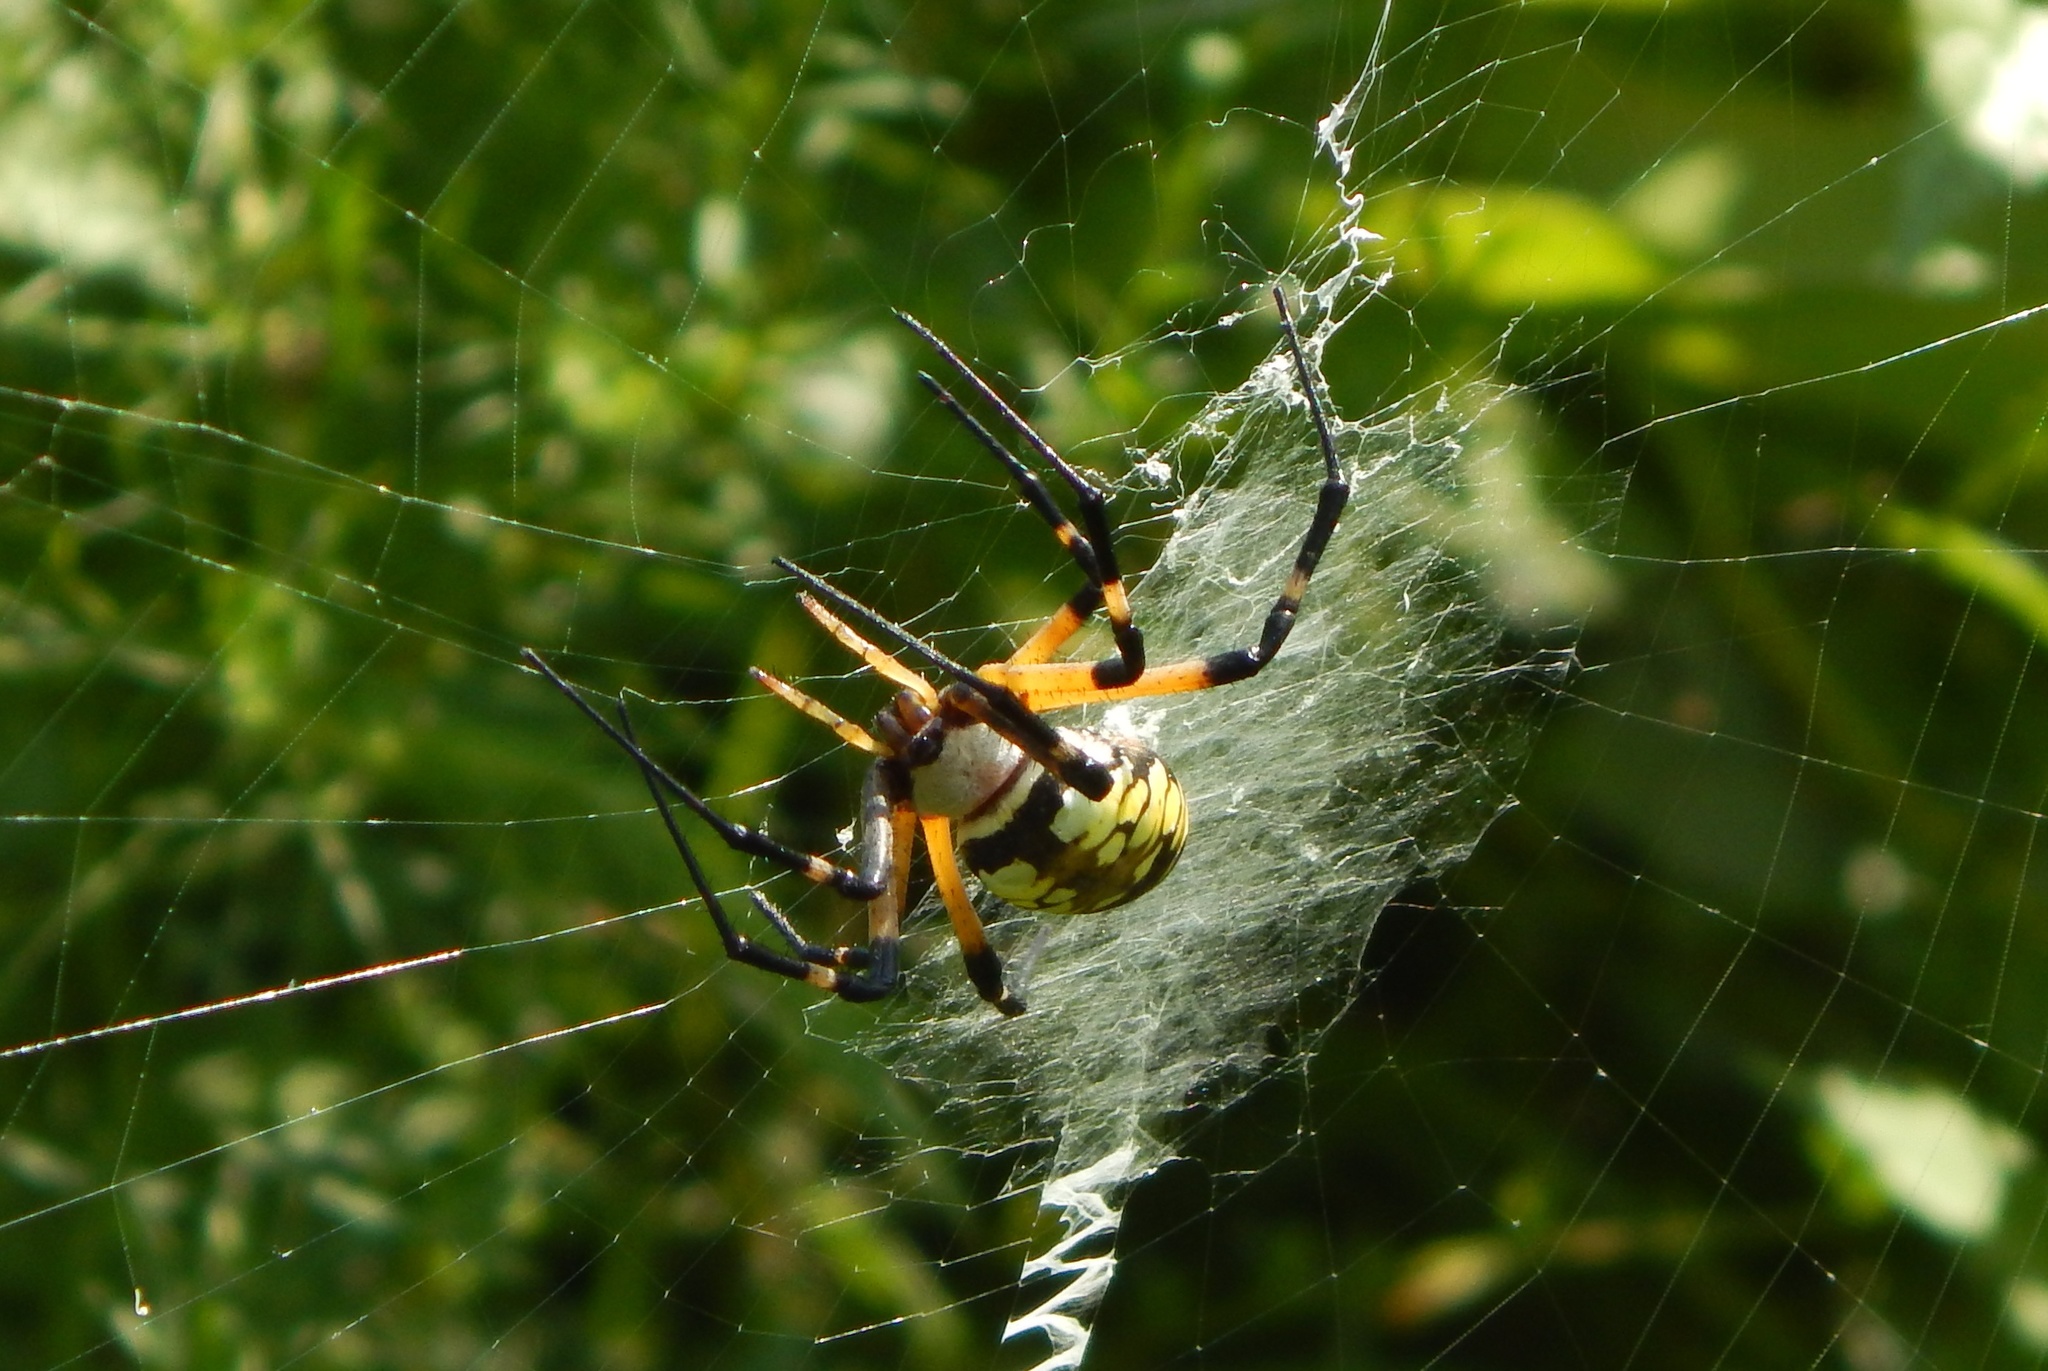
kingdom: Animalia
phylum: Arthropoda
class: Arachnida
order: Araneae
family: Araneidae
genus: Argiope
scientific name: Argiope aurantia
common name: Orb weavers
